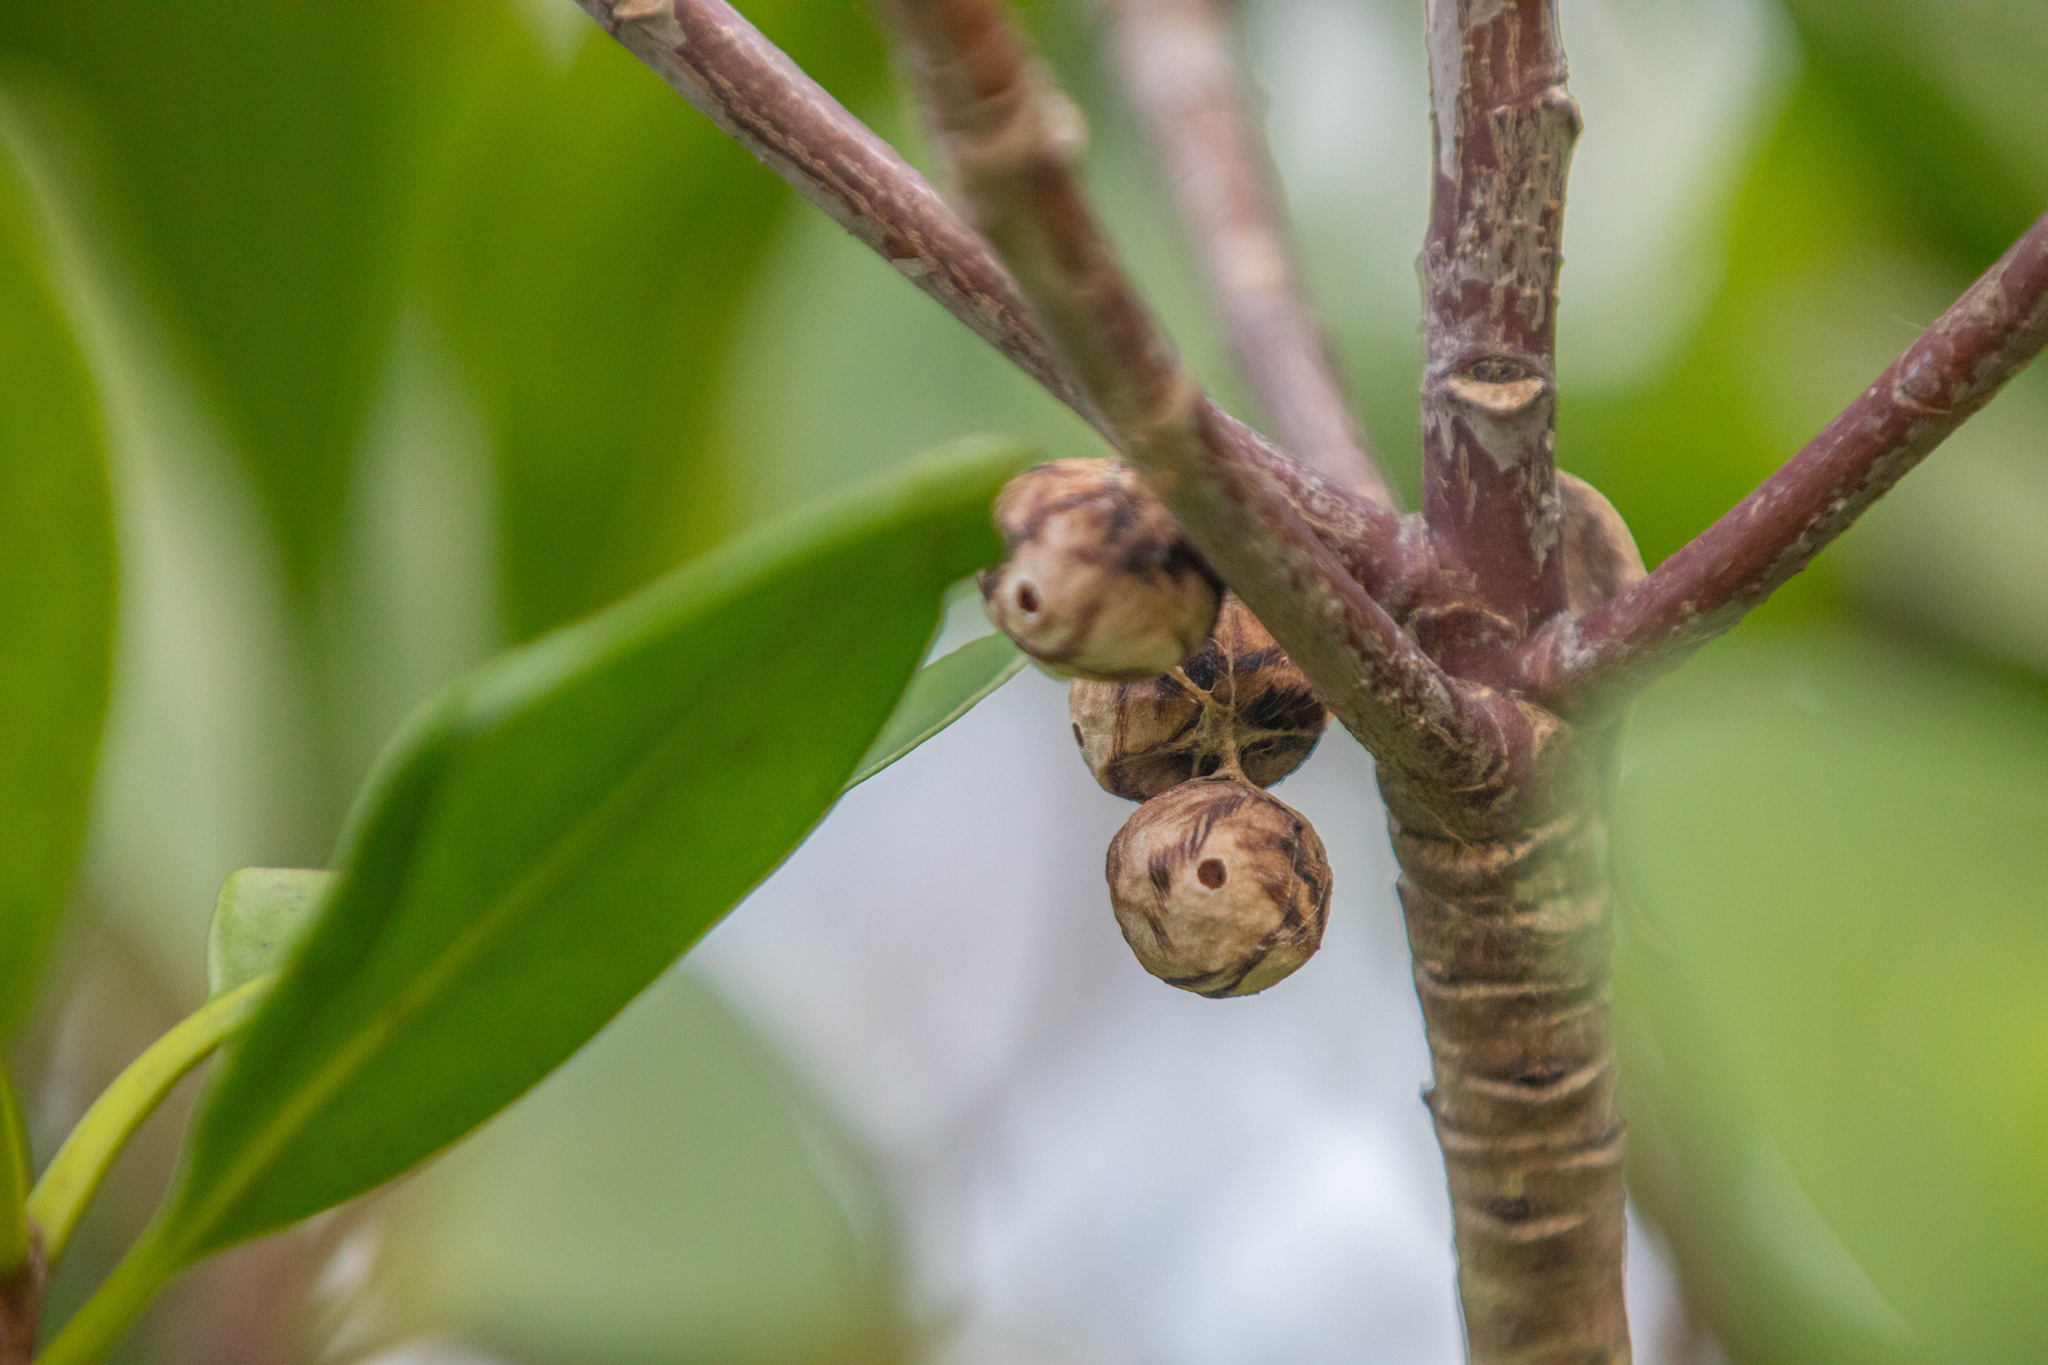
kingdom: Animalia
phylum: Arthropoda
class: Arachnida
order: Araneae
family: Araneidae
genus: Celaenia
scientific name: Celaenia excavata
